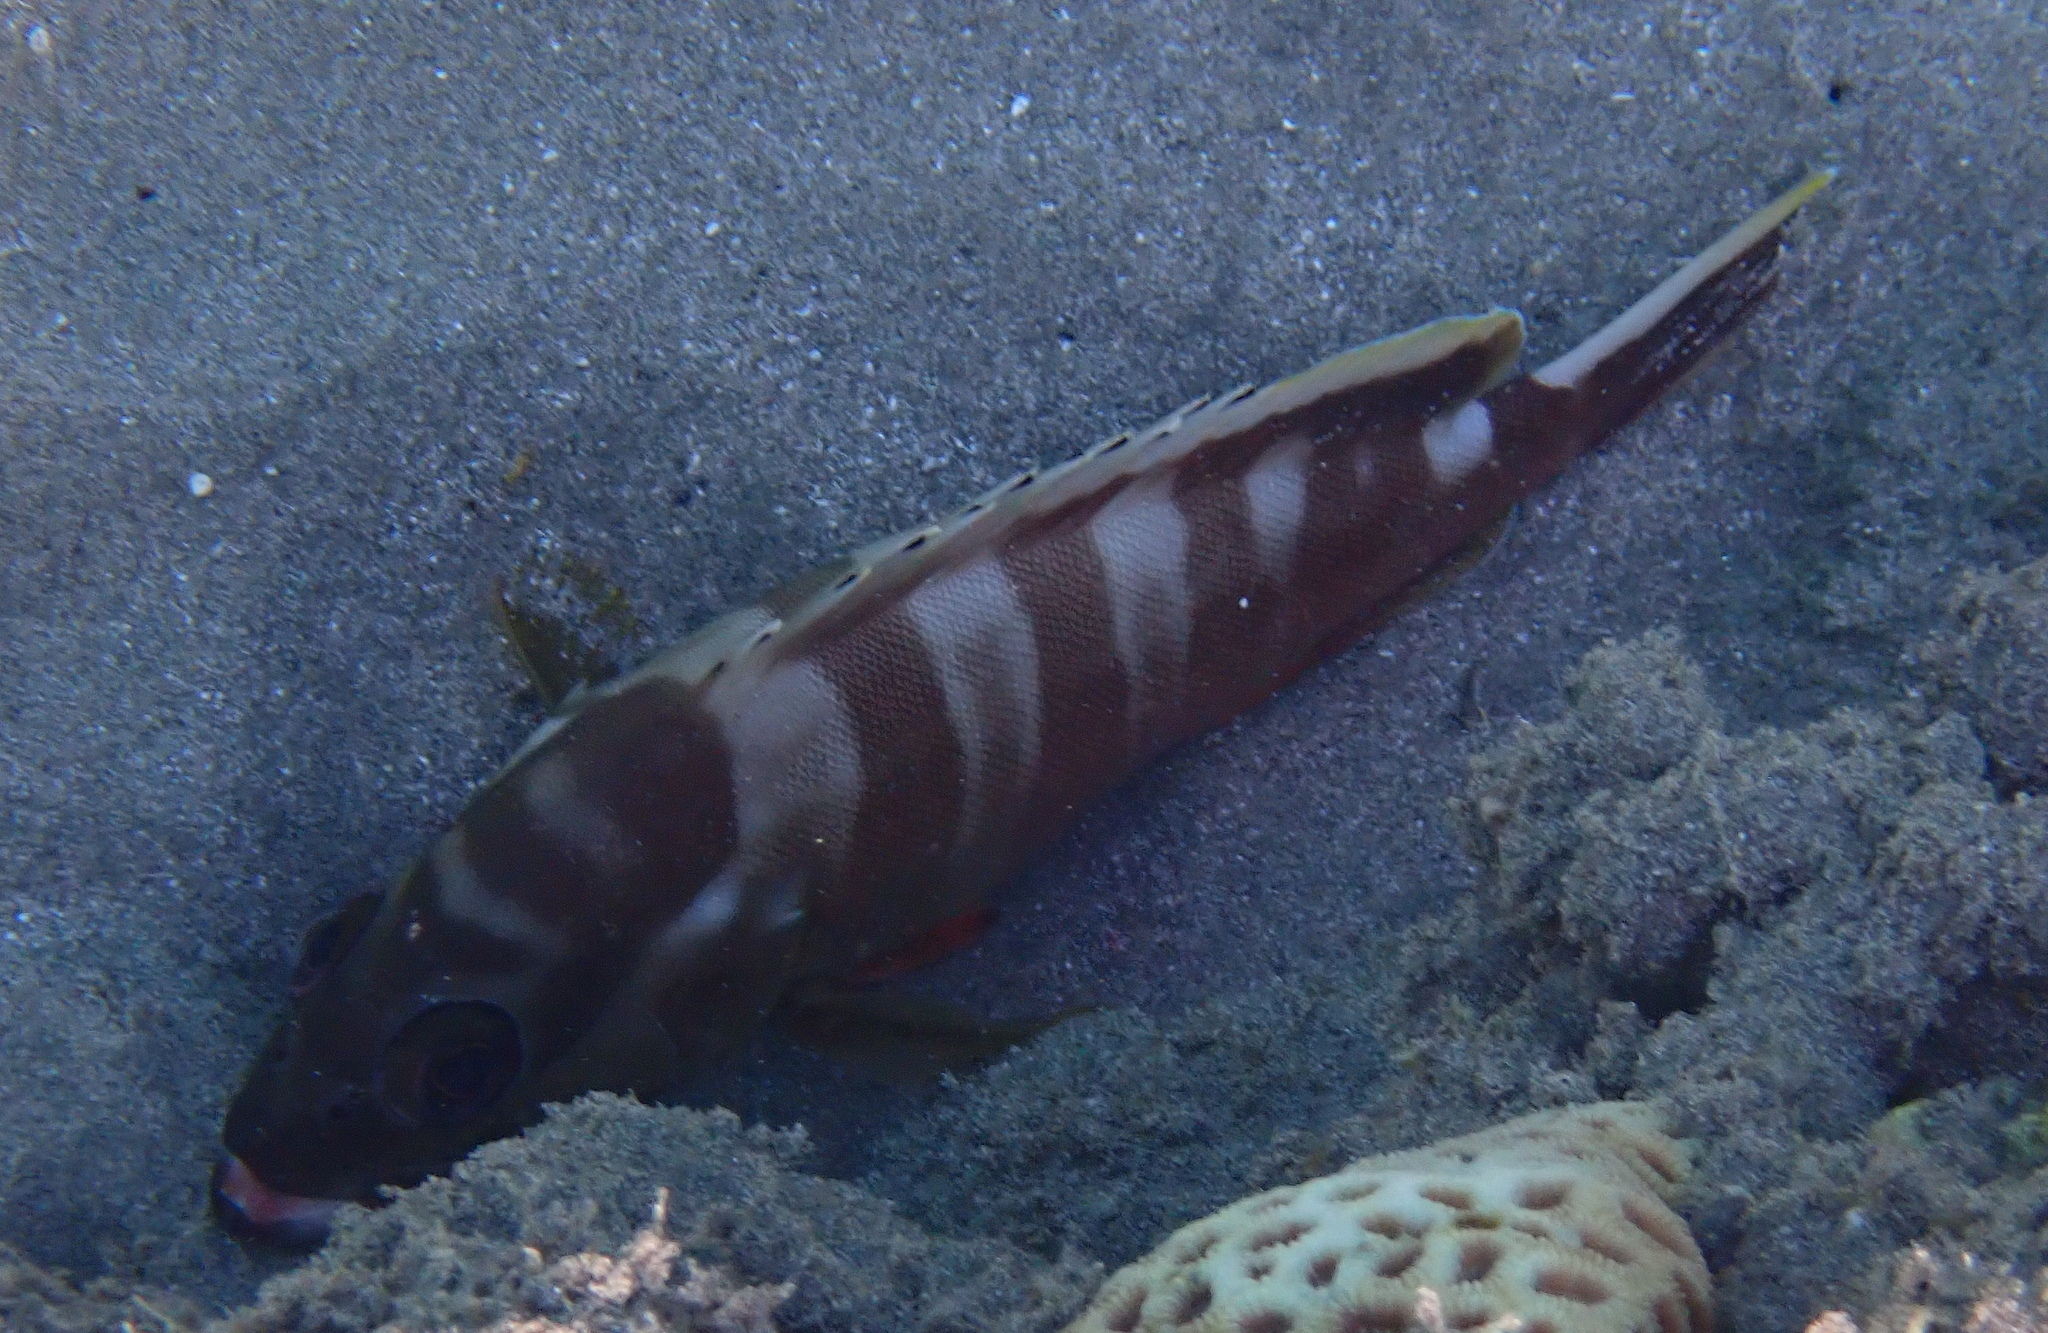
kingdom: Animalia
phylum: Chordata
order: Perciformes
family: Serranidae
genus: Epinephelus
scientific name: Epinephelus fasciatus
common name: Blacktip grouper
